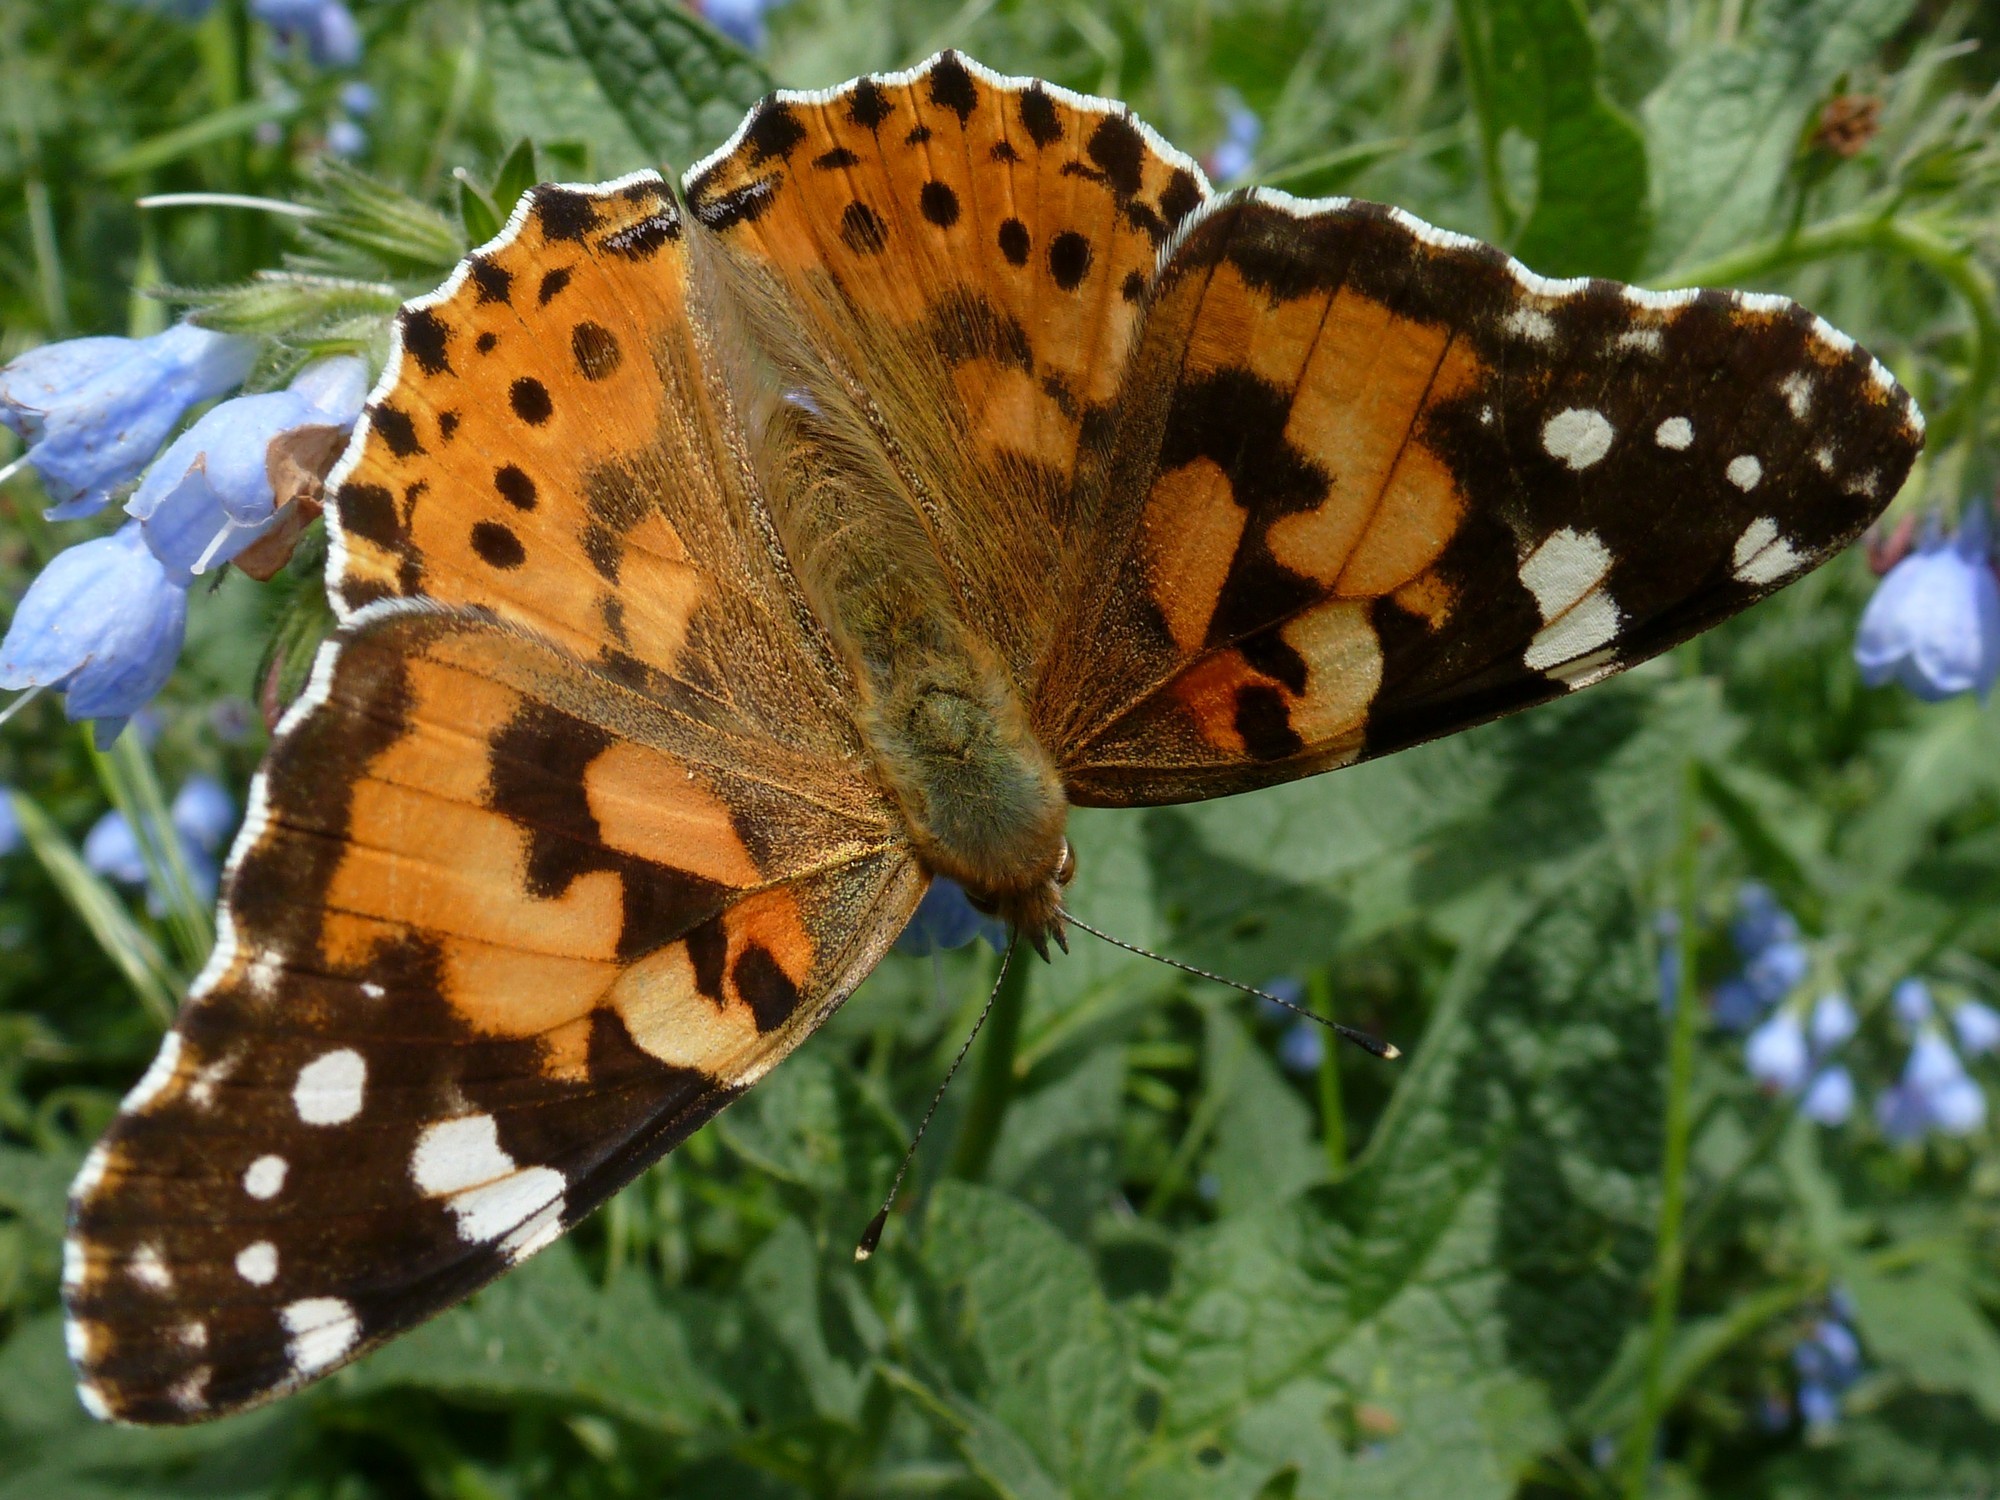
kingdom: Animalia
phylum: Arthropoda
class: Insecta
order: Lepidoptera
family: Nymphalidae
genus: Vanessa
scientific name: Vanessa cardui
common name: Painted lady
